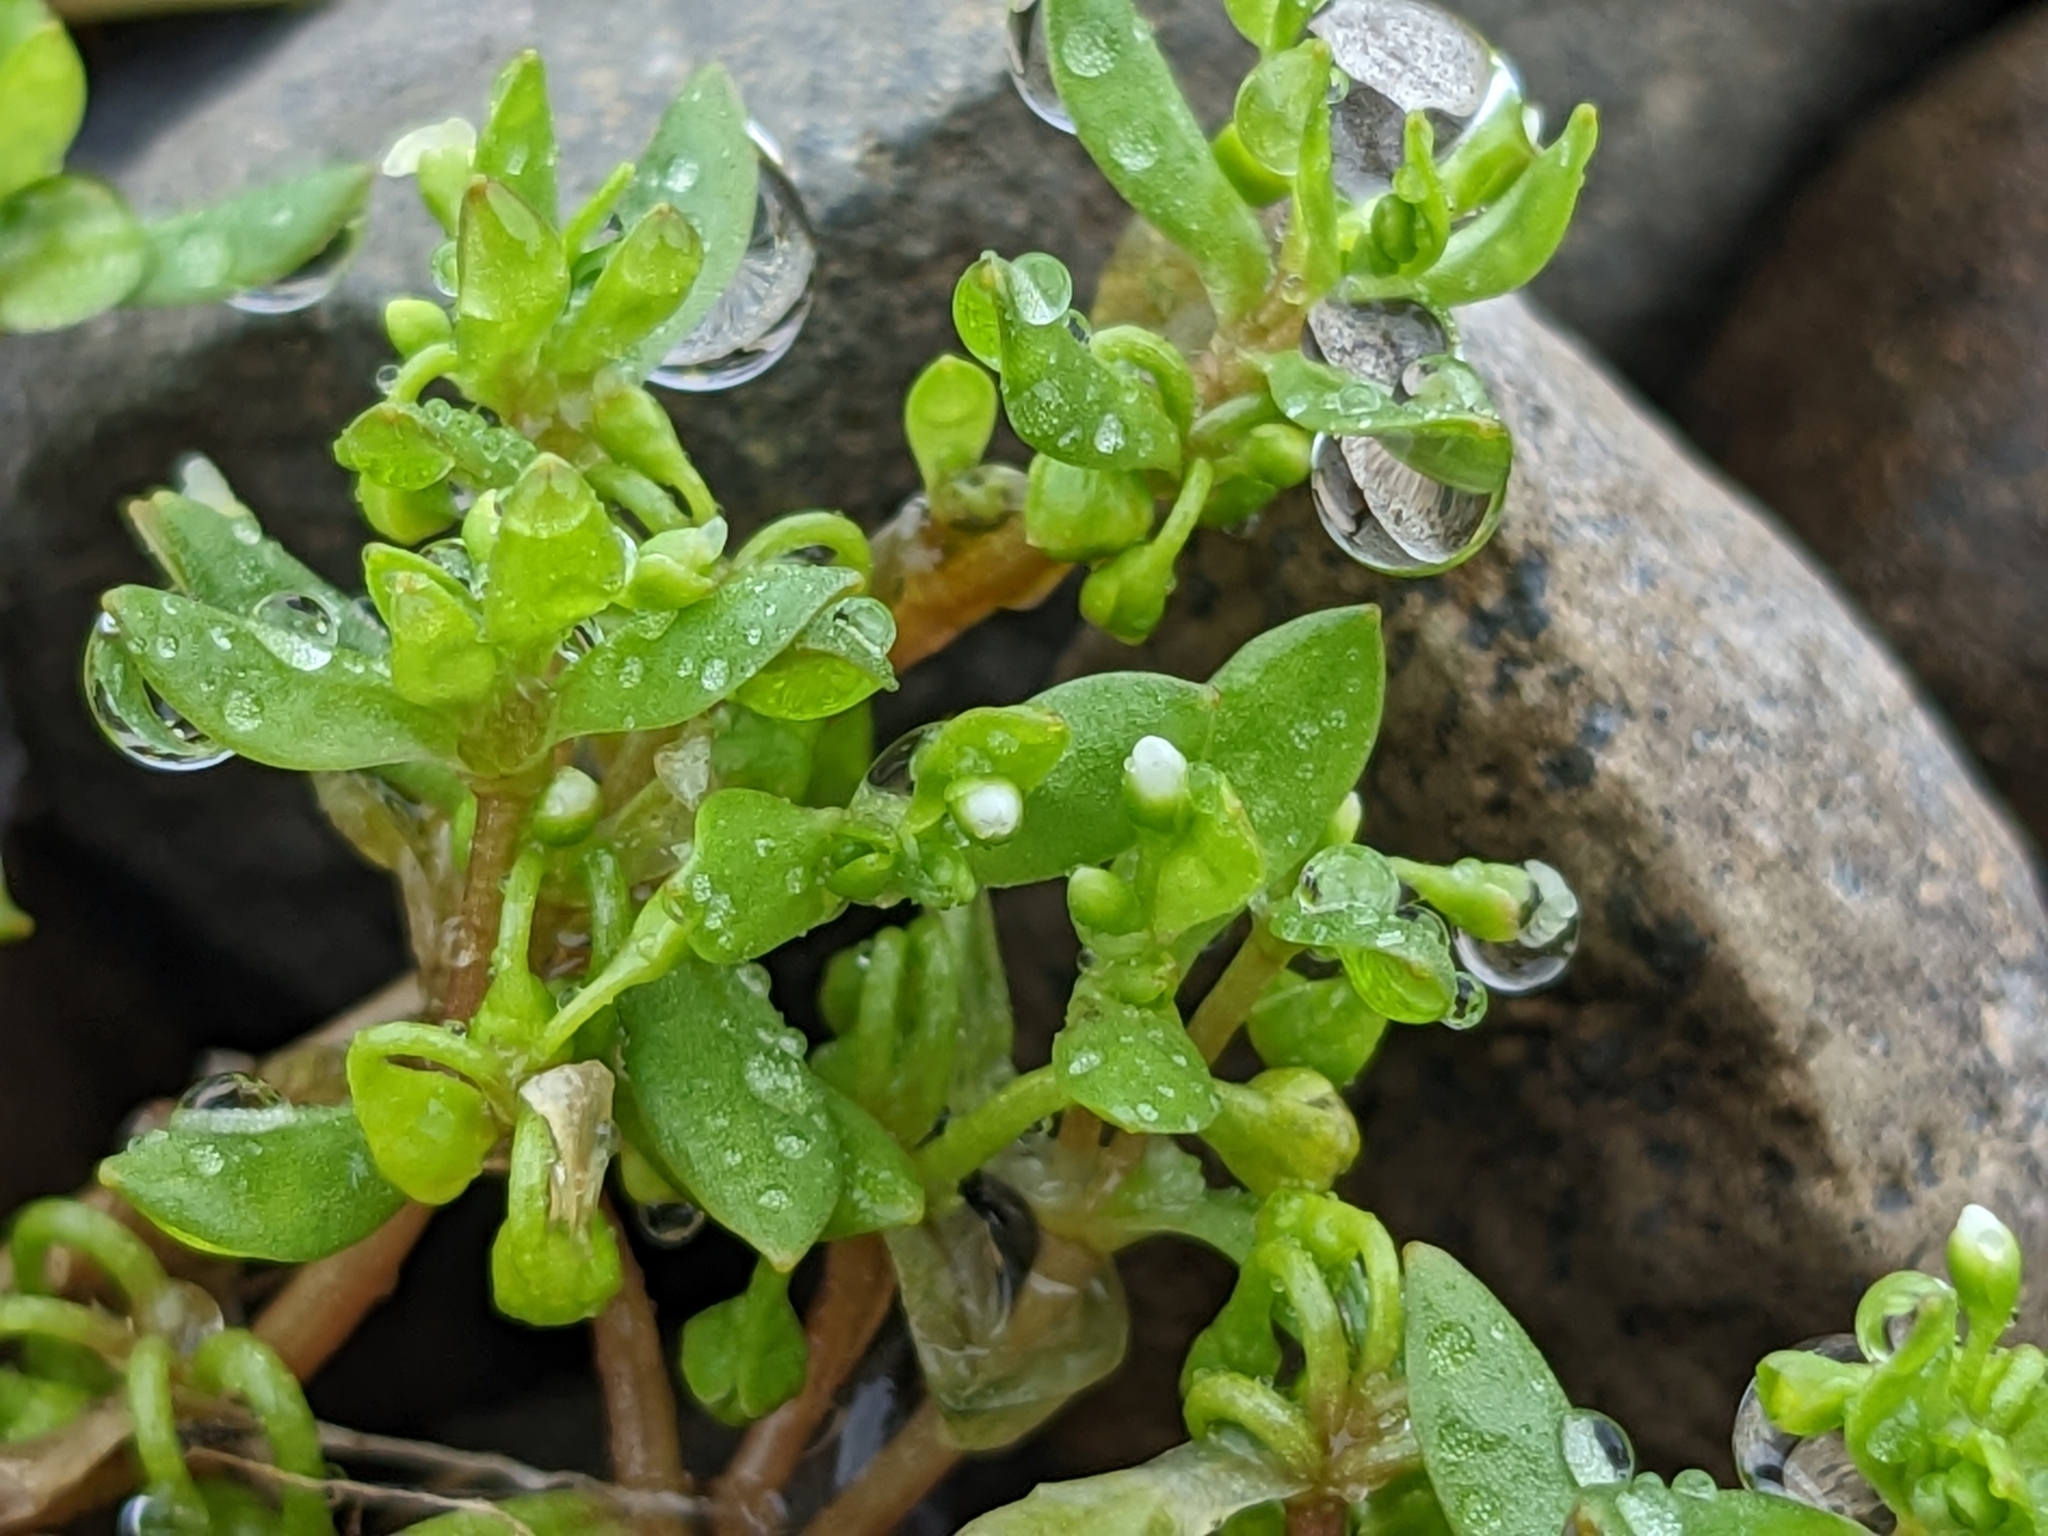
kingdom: Plantae
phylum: Tracheophyta
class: Magnoliopsida
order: Caryophyllales
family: Montiaceae
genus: Montia
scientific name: Montia fontana
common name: Blinks
